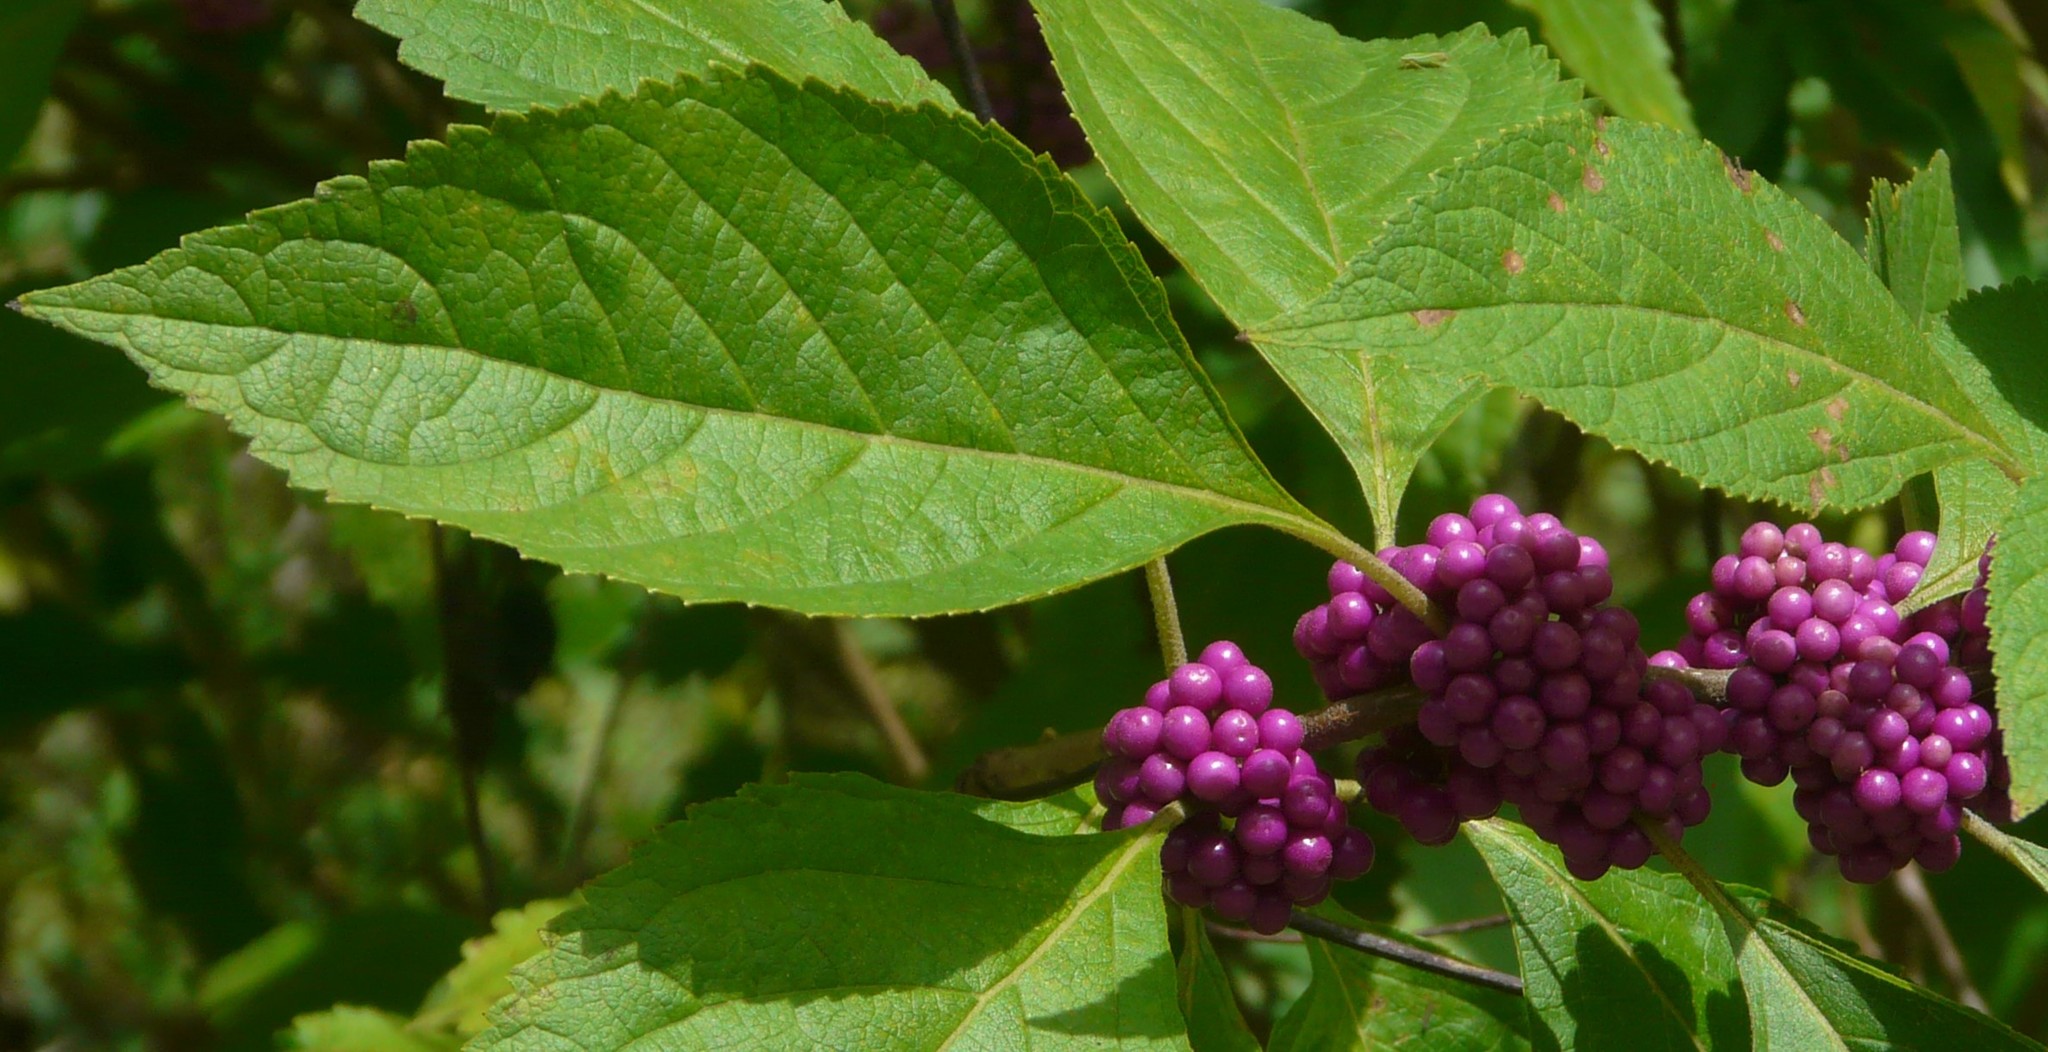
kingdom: Plantae
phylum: Tracheophyta
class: Magnoliopsida
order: Lamiales
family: Lamiaceae
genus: Callicarpa
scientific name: Callicarpa americana
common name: American beautyberry
